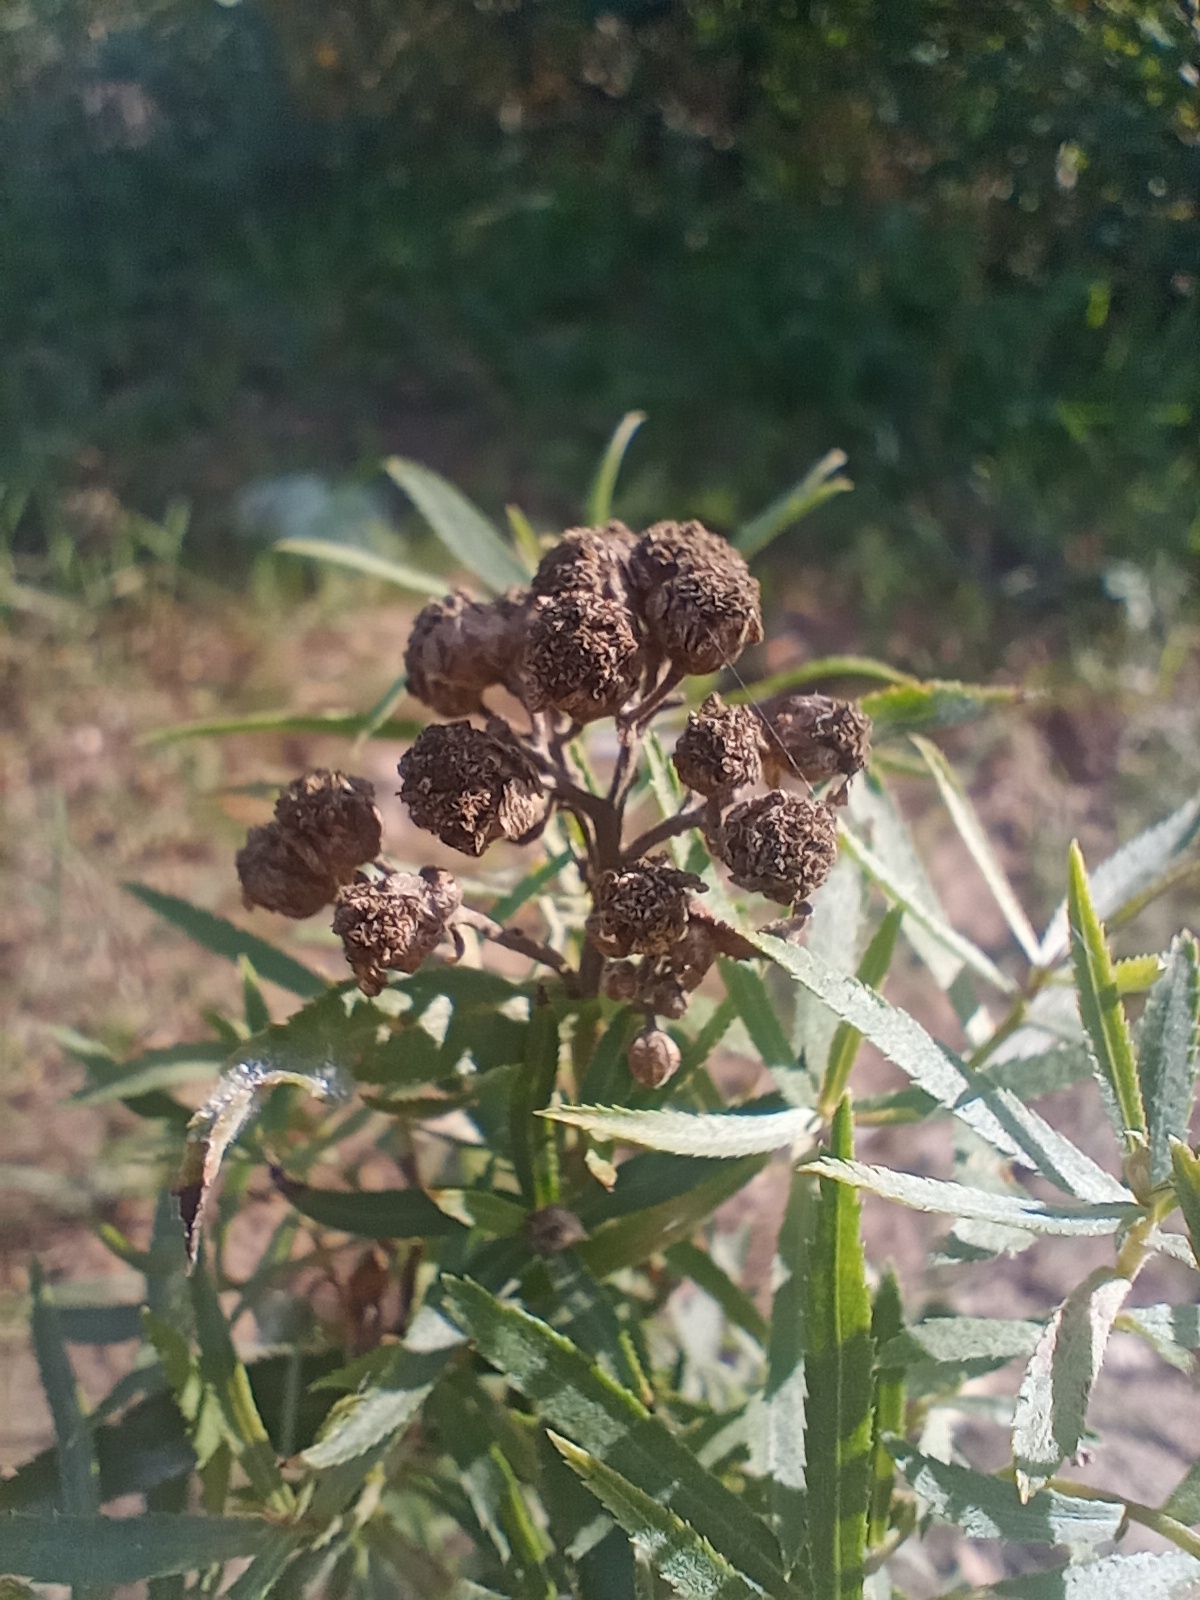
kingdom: Plantae
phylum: Tracheophyta
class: Magnoliopsida
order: Asterales
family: Asteraceae
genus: Achillea
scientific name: Achillea salicifolia
